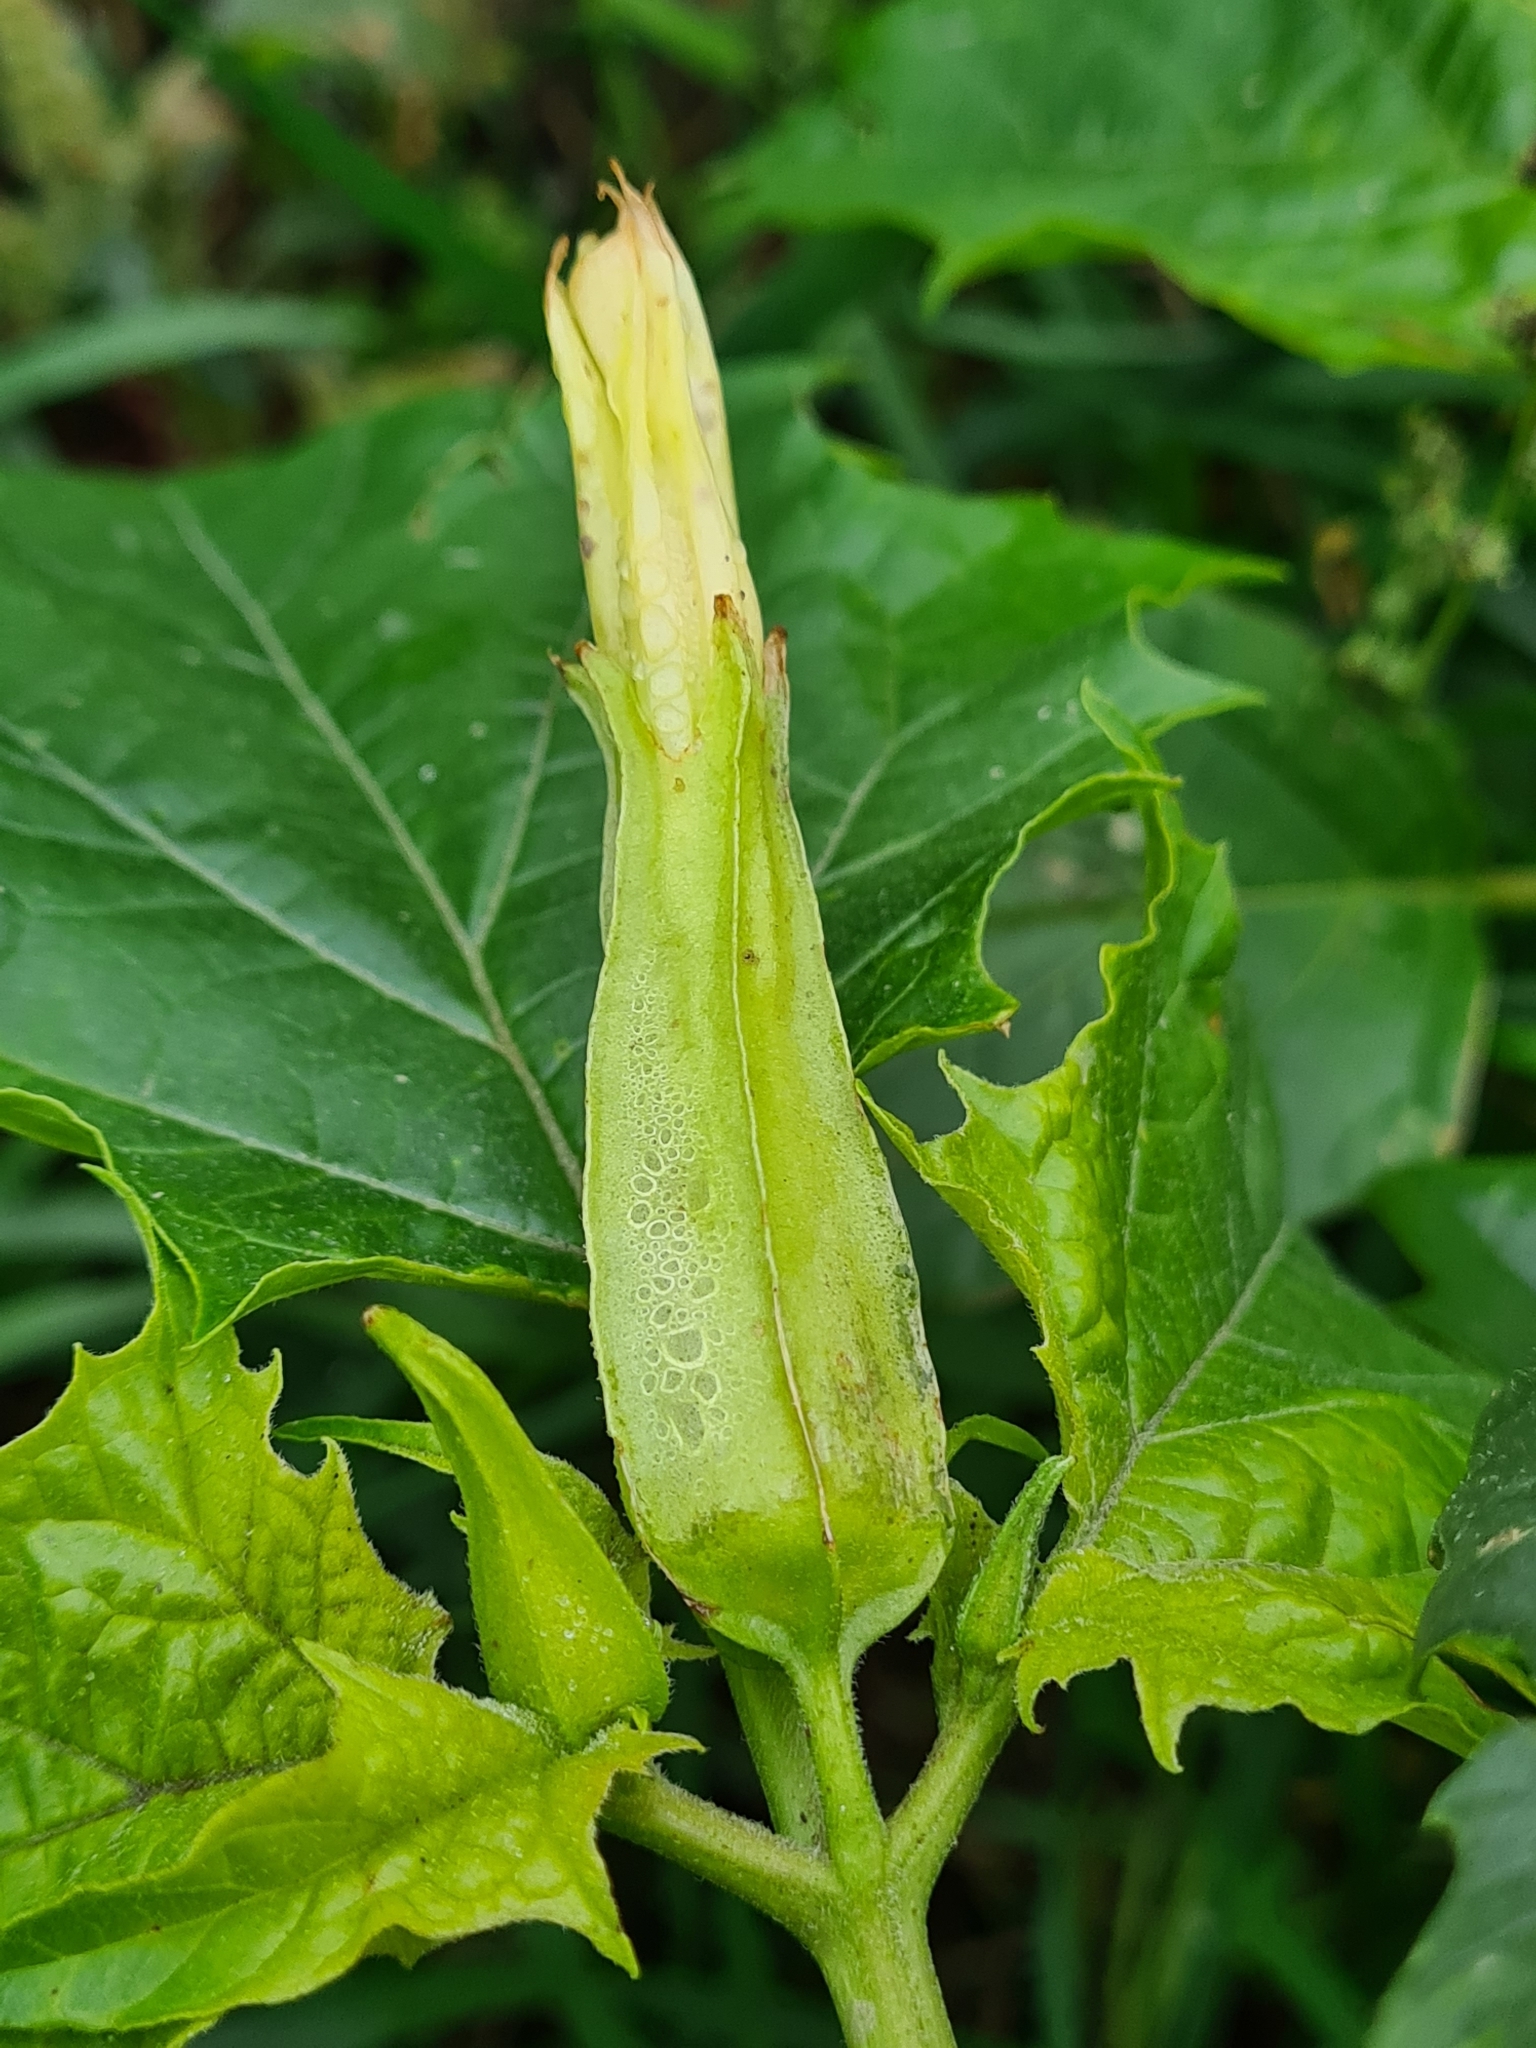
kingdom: Plantae
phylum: Tracheophyta
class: Magnoliopsida
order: Solanales
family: Solanaceae
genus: Datura
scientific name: Datura stramonium
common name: Thorn-apple
